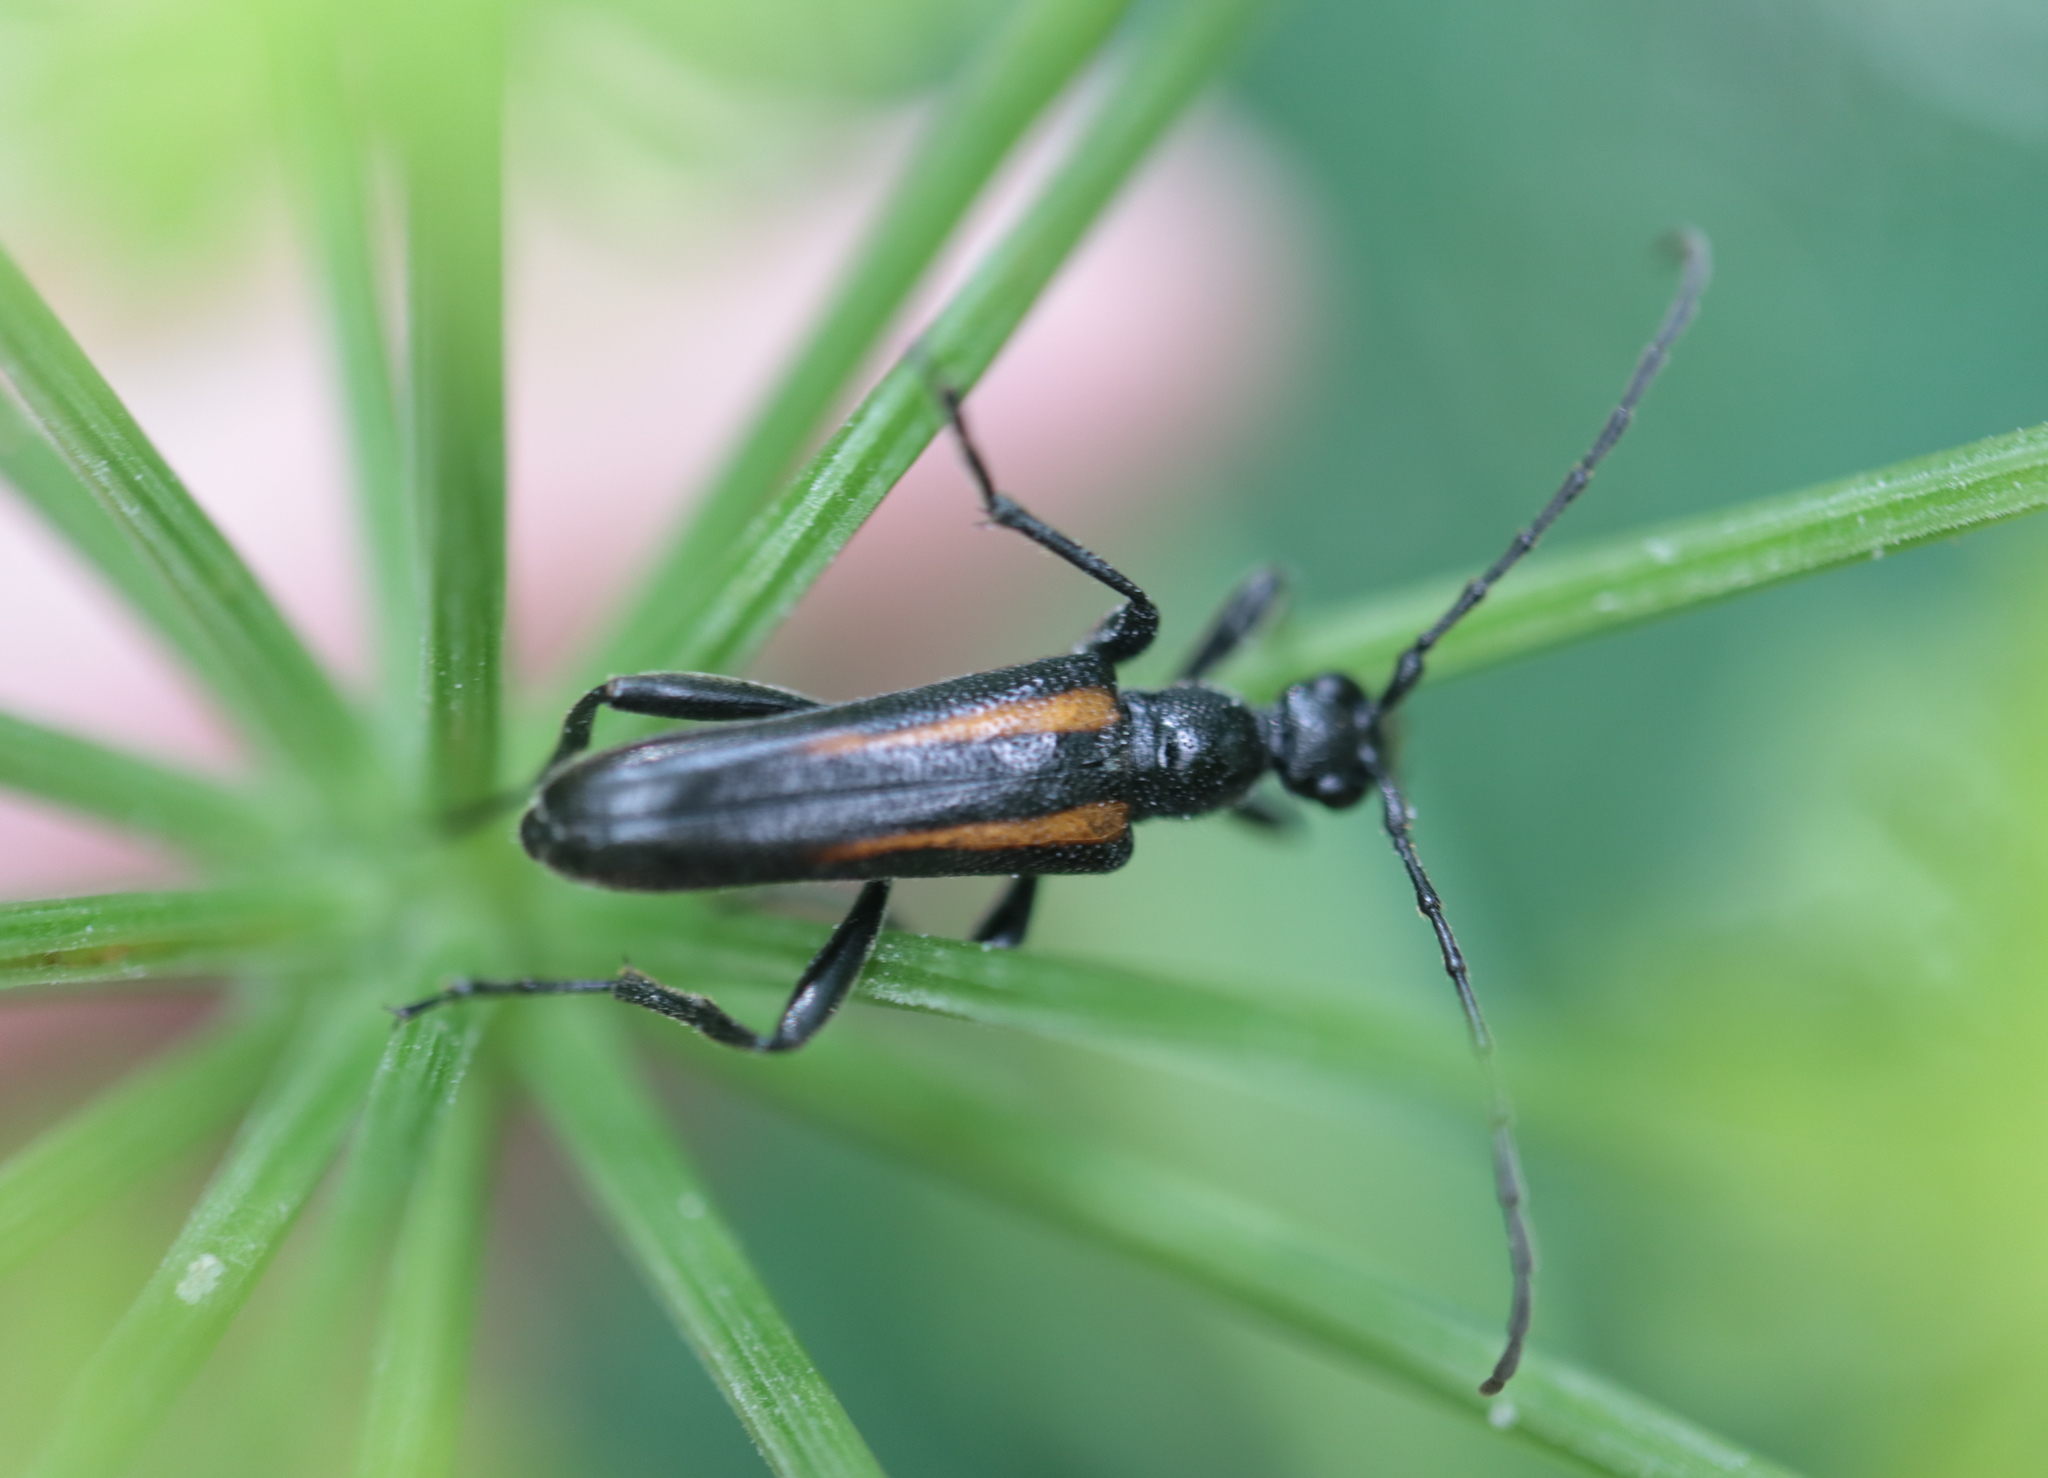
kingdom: Animalia
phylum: Arthropoda
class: Insecta
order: Coleoptera
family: Cerambycidae
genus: Strangalepta
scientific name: Strangalepta abbreviata
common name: Strangalepta flower longhorn beetle
